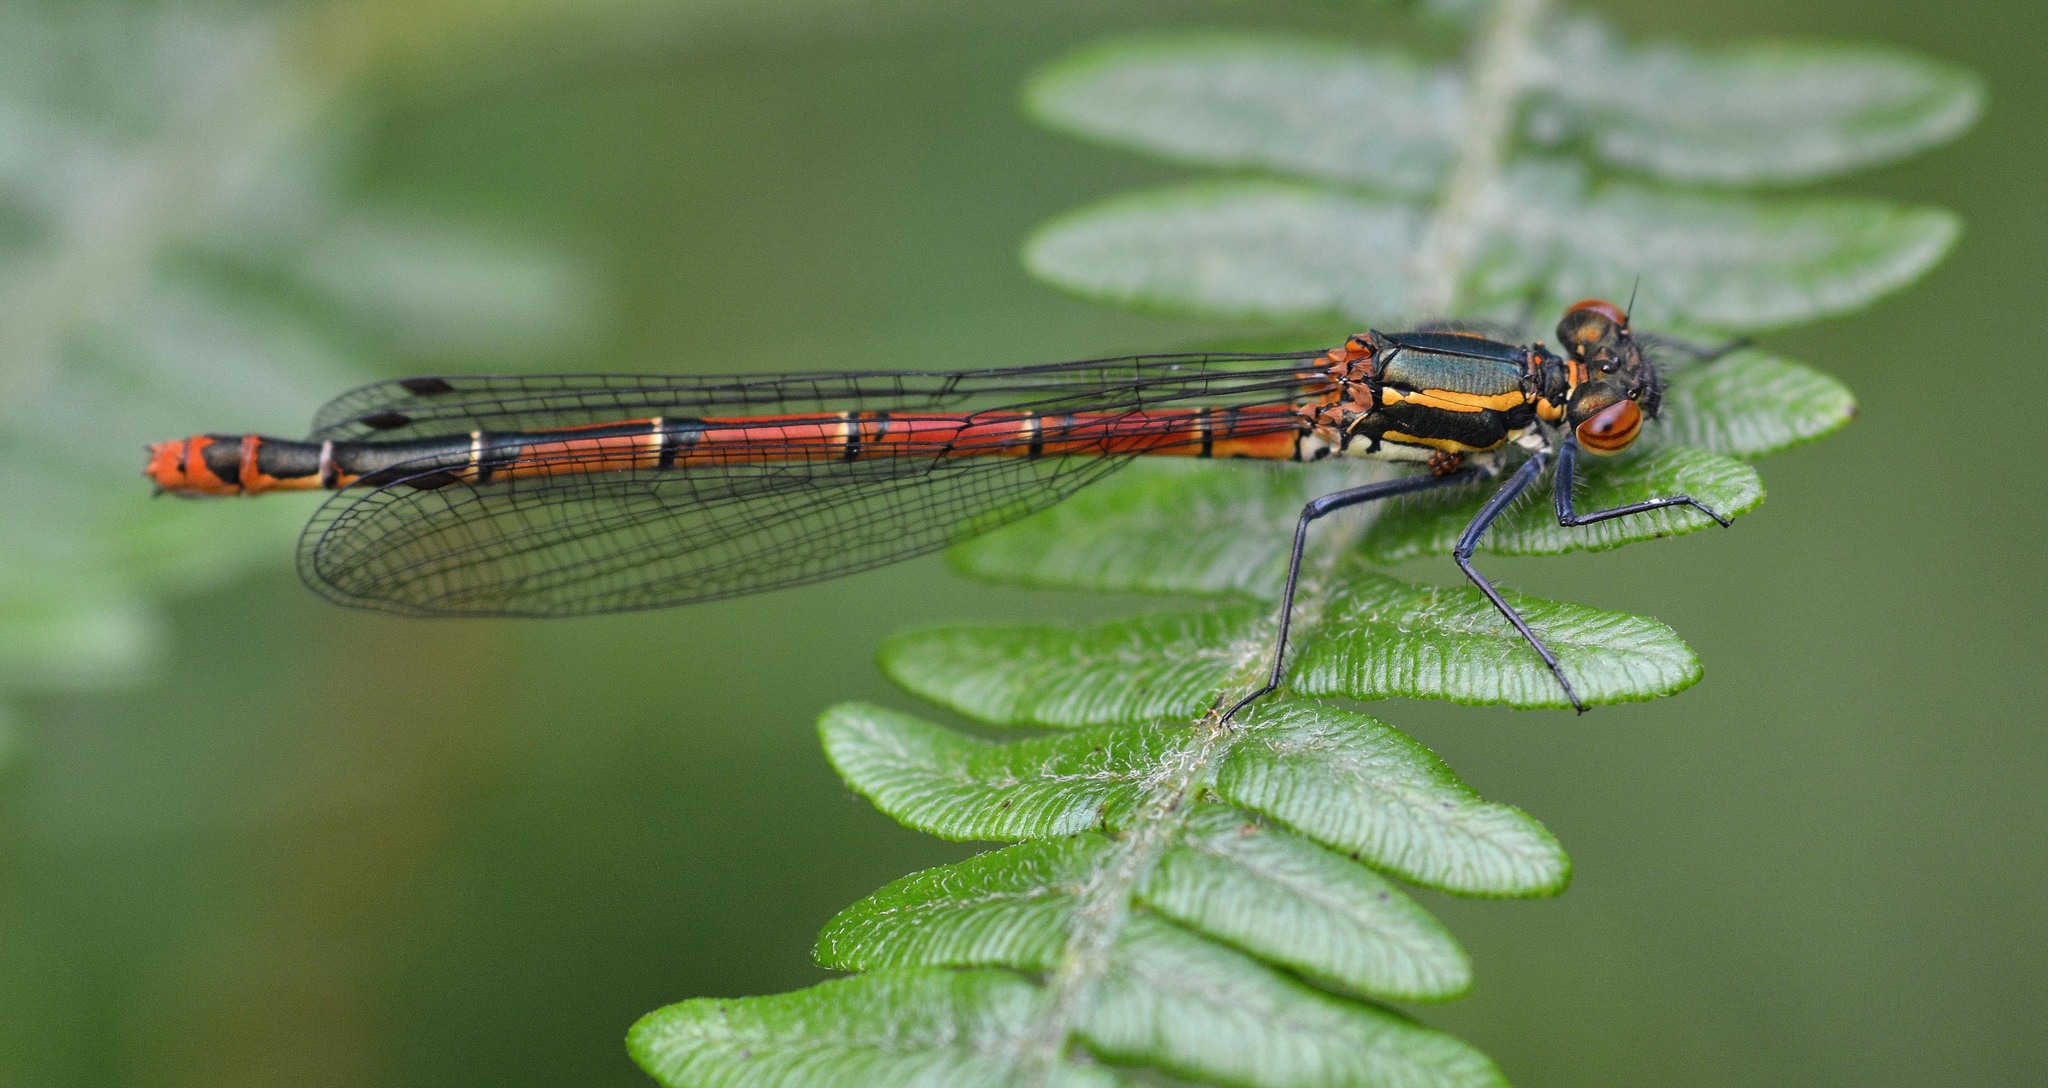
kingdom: Animalia
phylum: Arthropoda
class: Insecta
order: Odonata
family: Coenagrionidae
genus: Pyrrhosoma
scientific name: Pyrrhosoma nymphula
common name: Large red damsel
